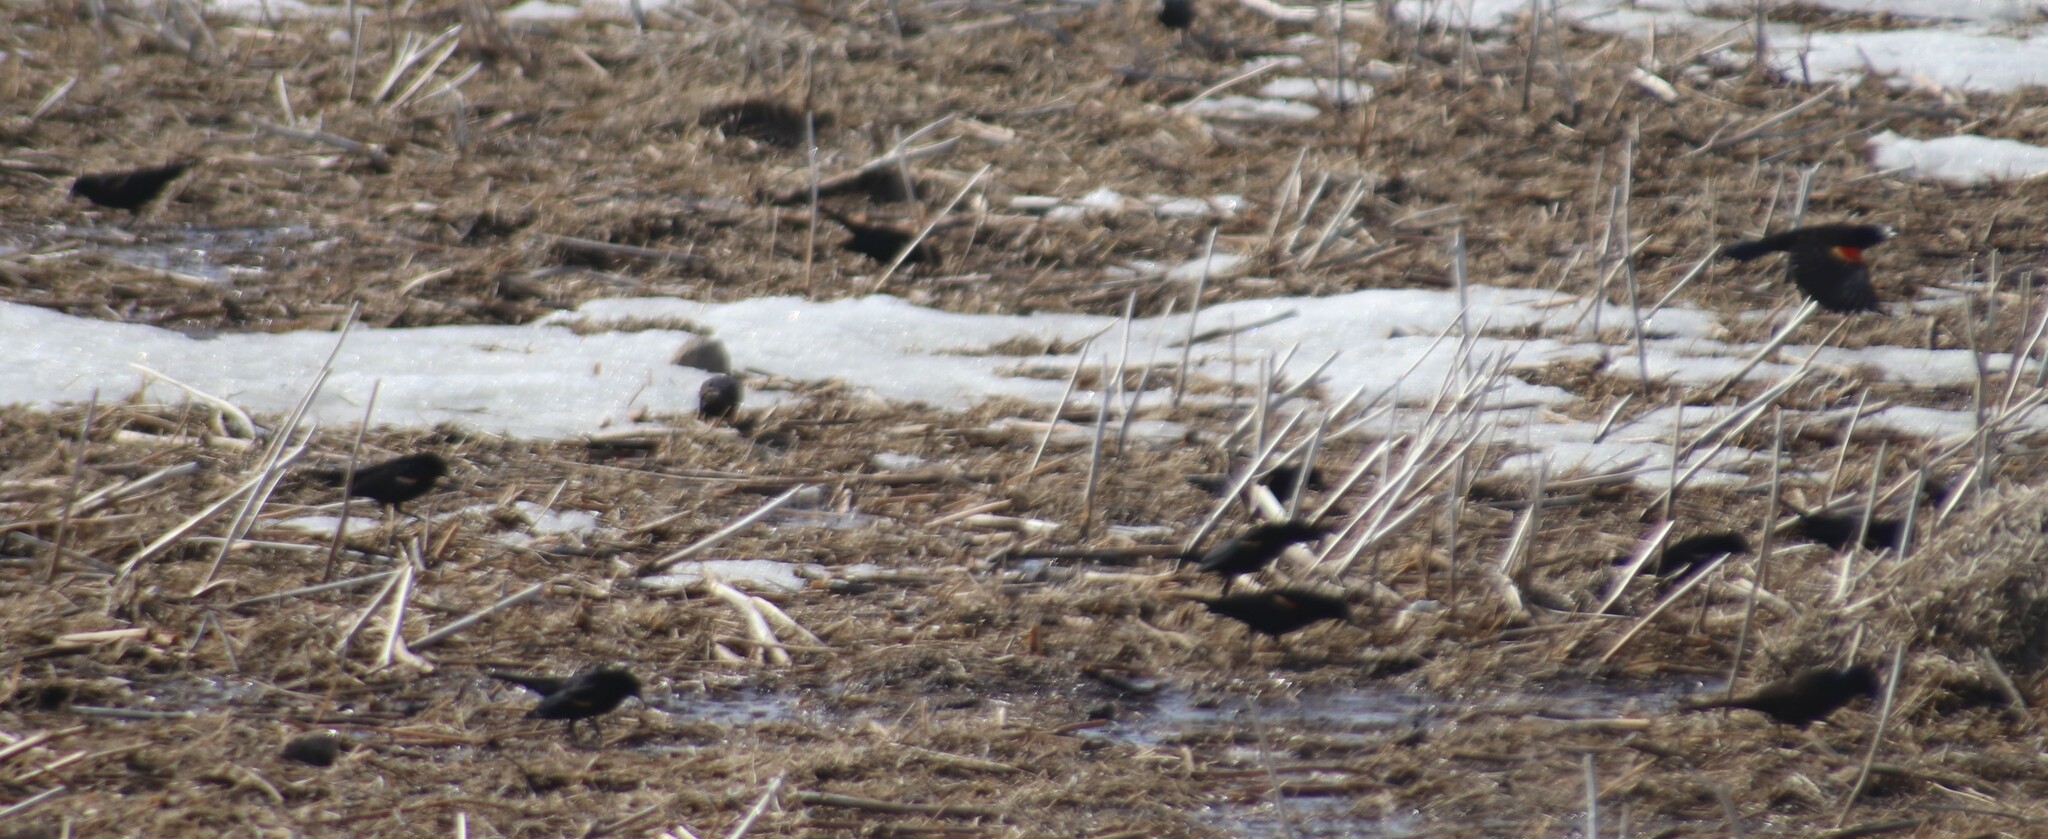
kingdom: Animalia
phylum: Chordata
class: Aves
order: Passeriformes
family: Icteridae
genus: Agelaius
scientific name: Agelaius phoeniceus
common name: Red-winged blackbird
